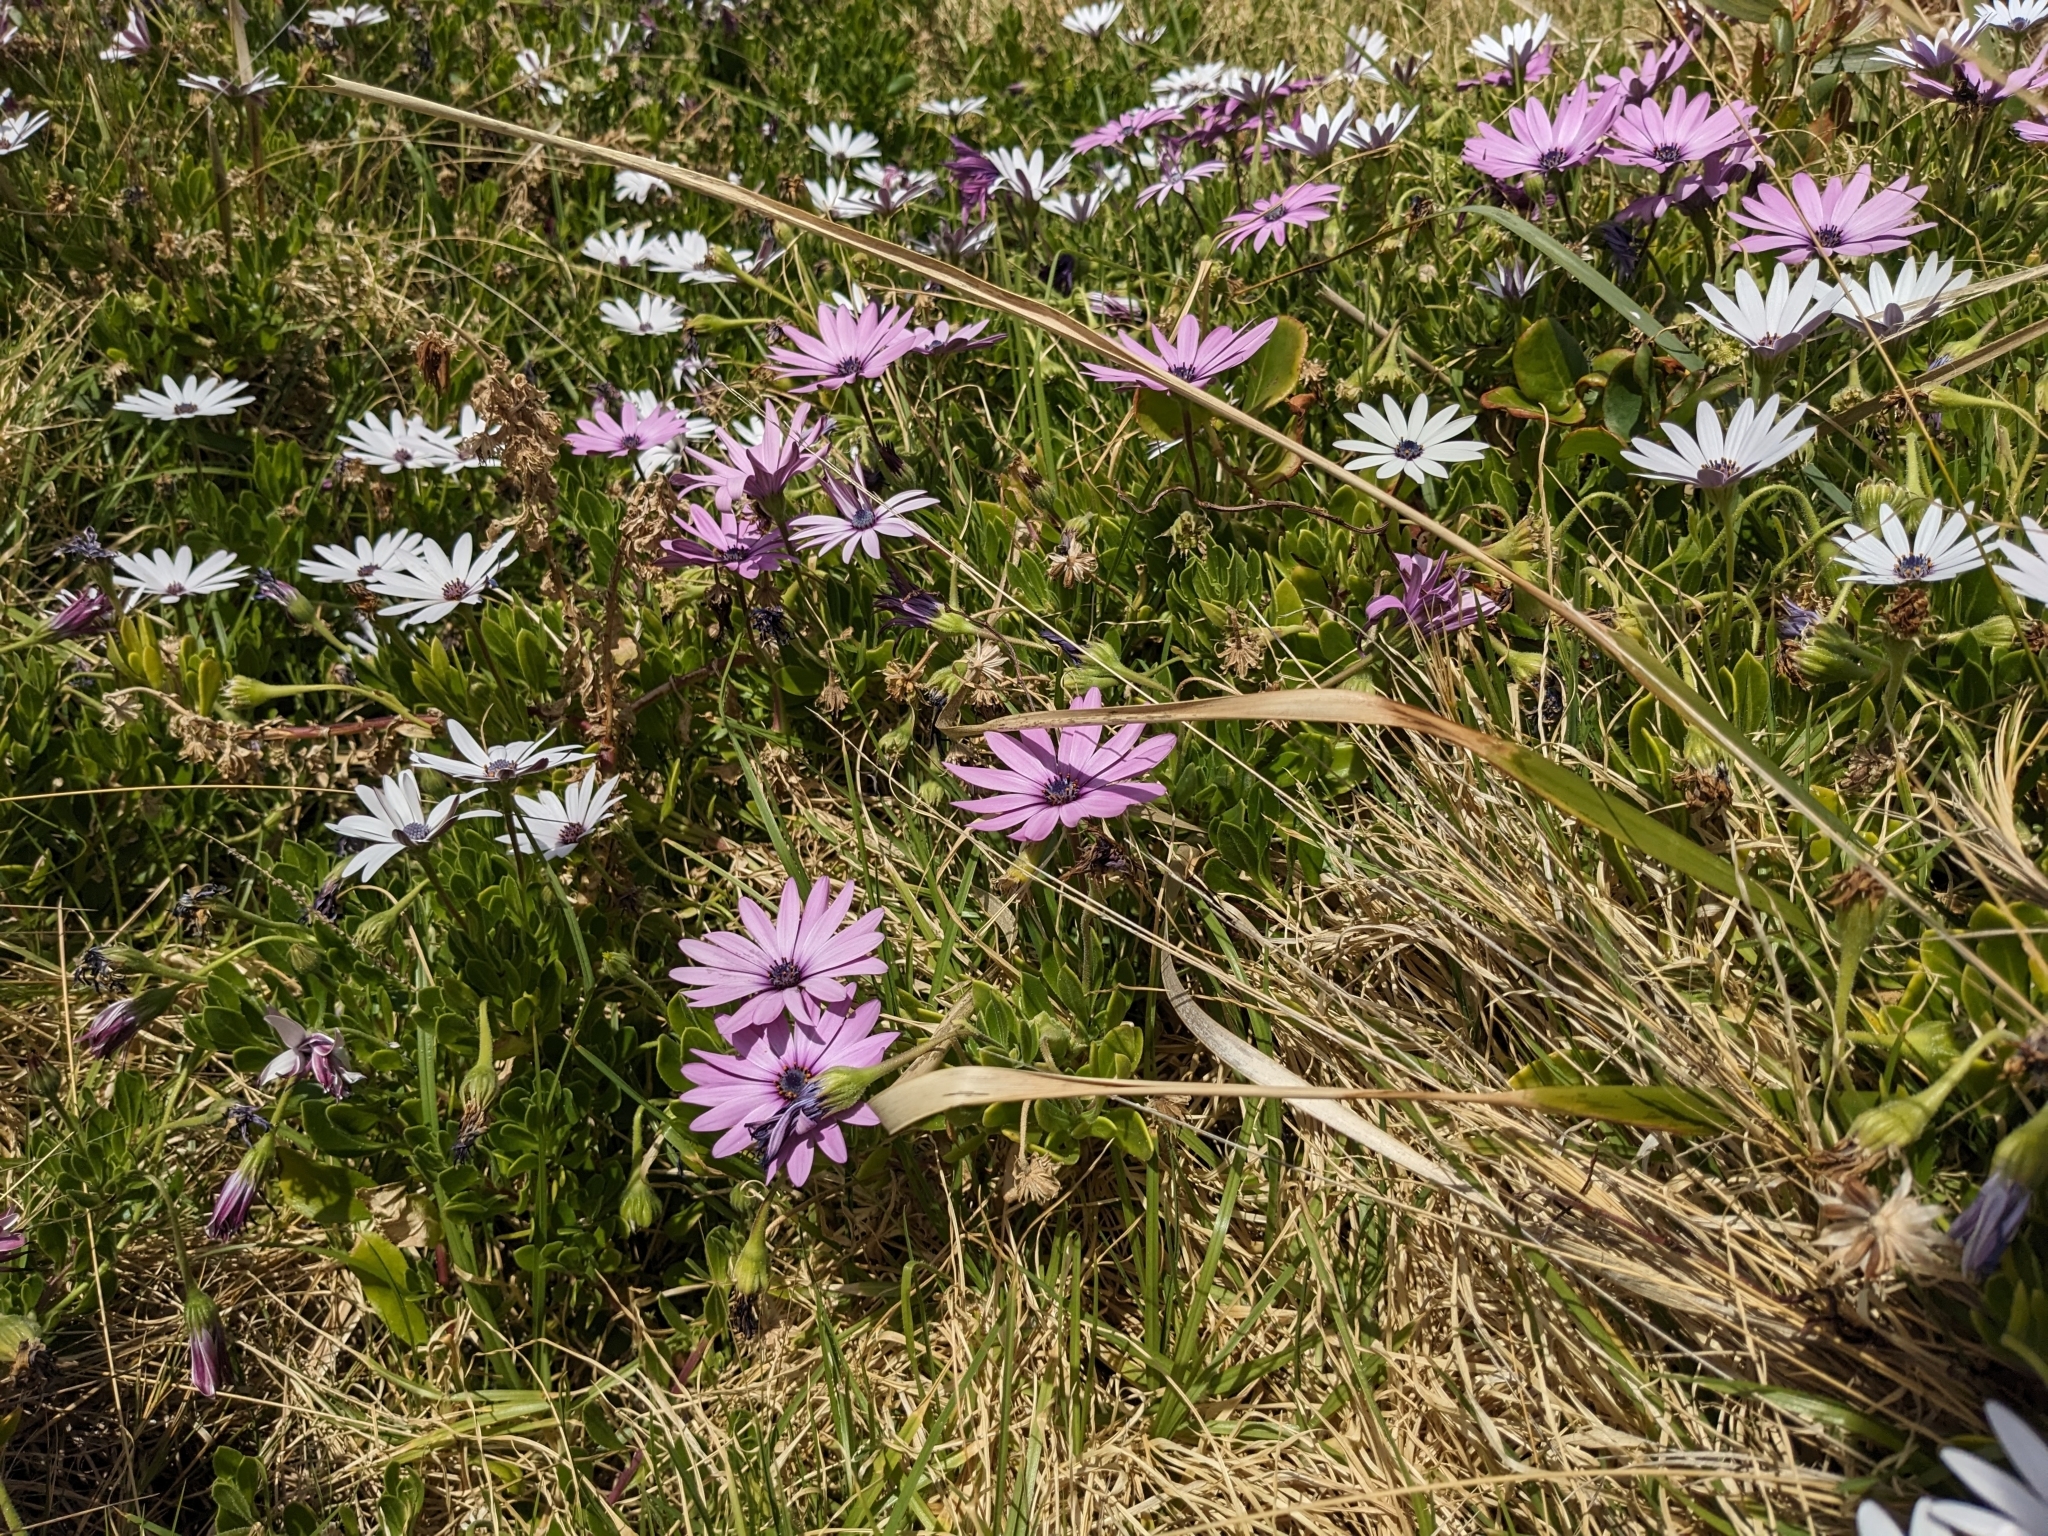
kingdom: Plantae
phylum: Tracheophyta
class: Magnoliopsida
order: Asterales
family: Asteraceae
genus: Dimorphotheca
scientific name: Dimorphotheca fruticosa
